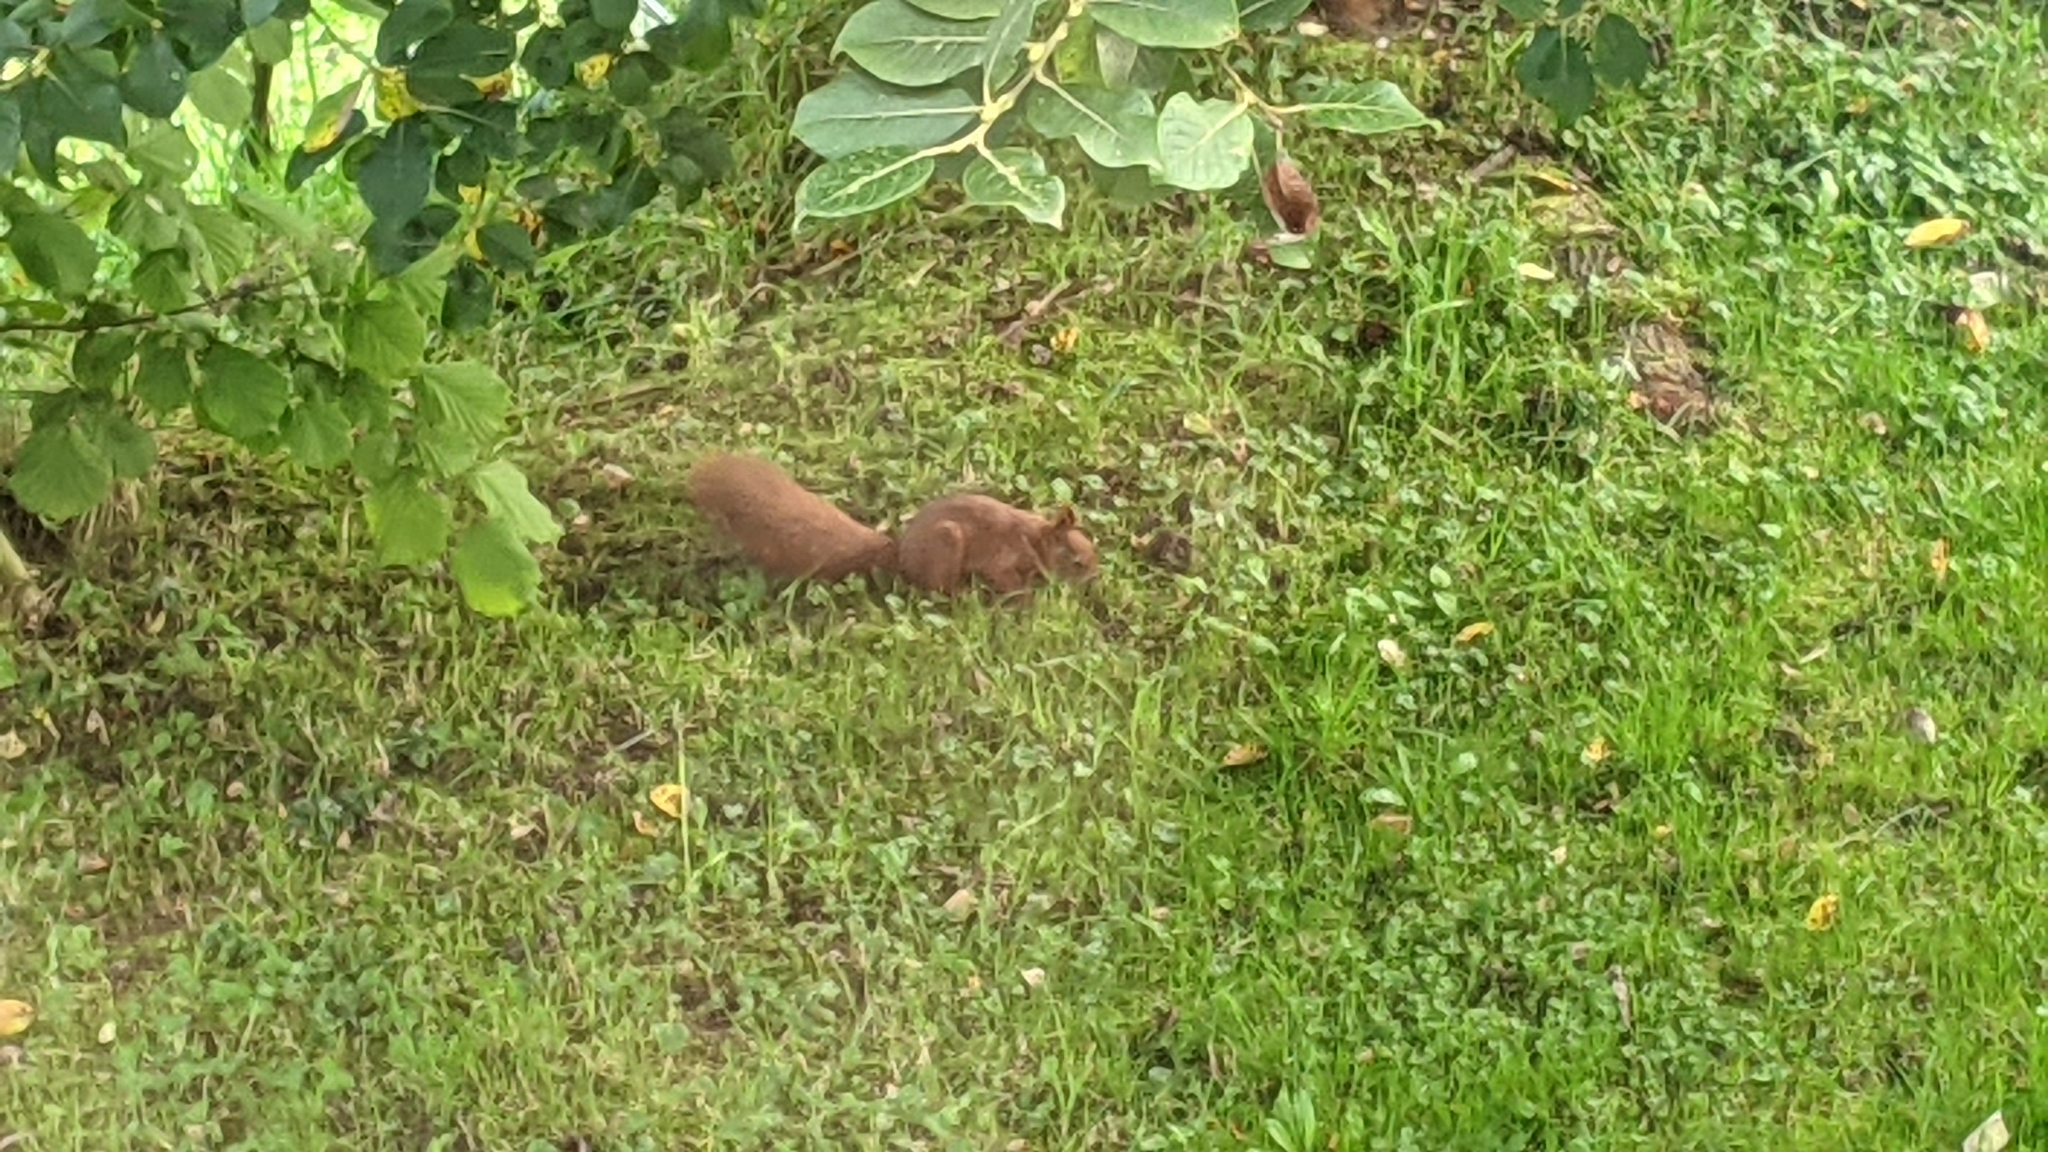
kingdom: Animalia
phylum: Chordata
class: Mammalia
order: Rodentia
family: Sciuridae
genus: Sciurus
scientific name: Sciurus vulgaris
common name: Eurasian red squirrel
